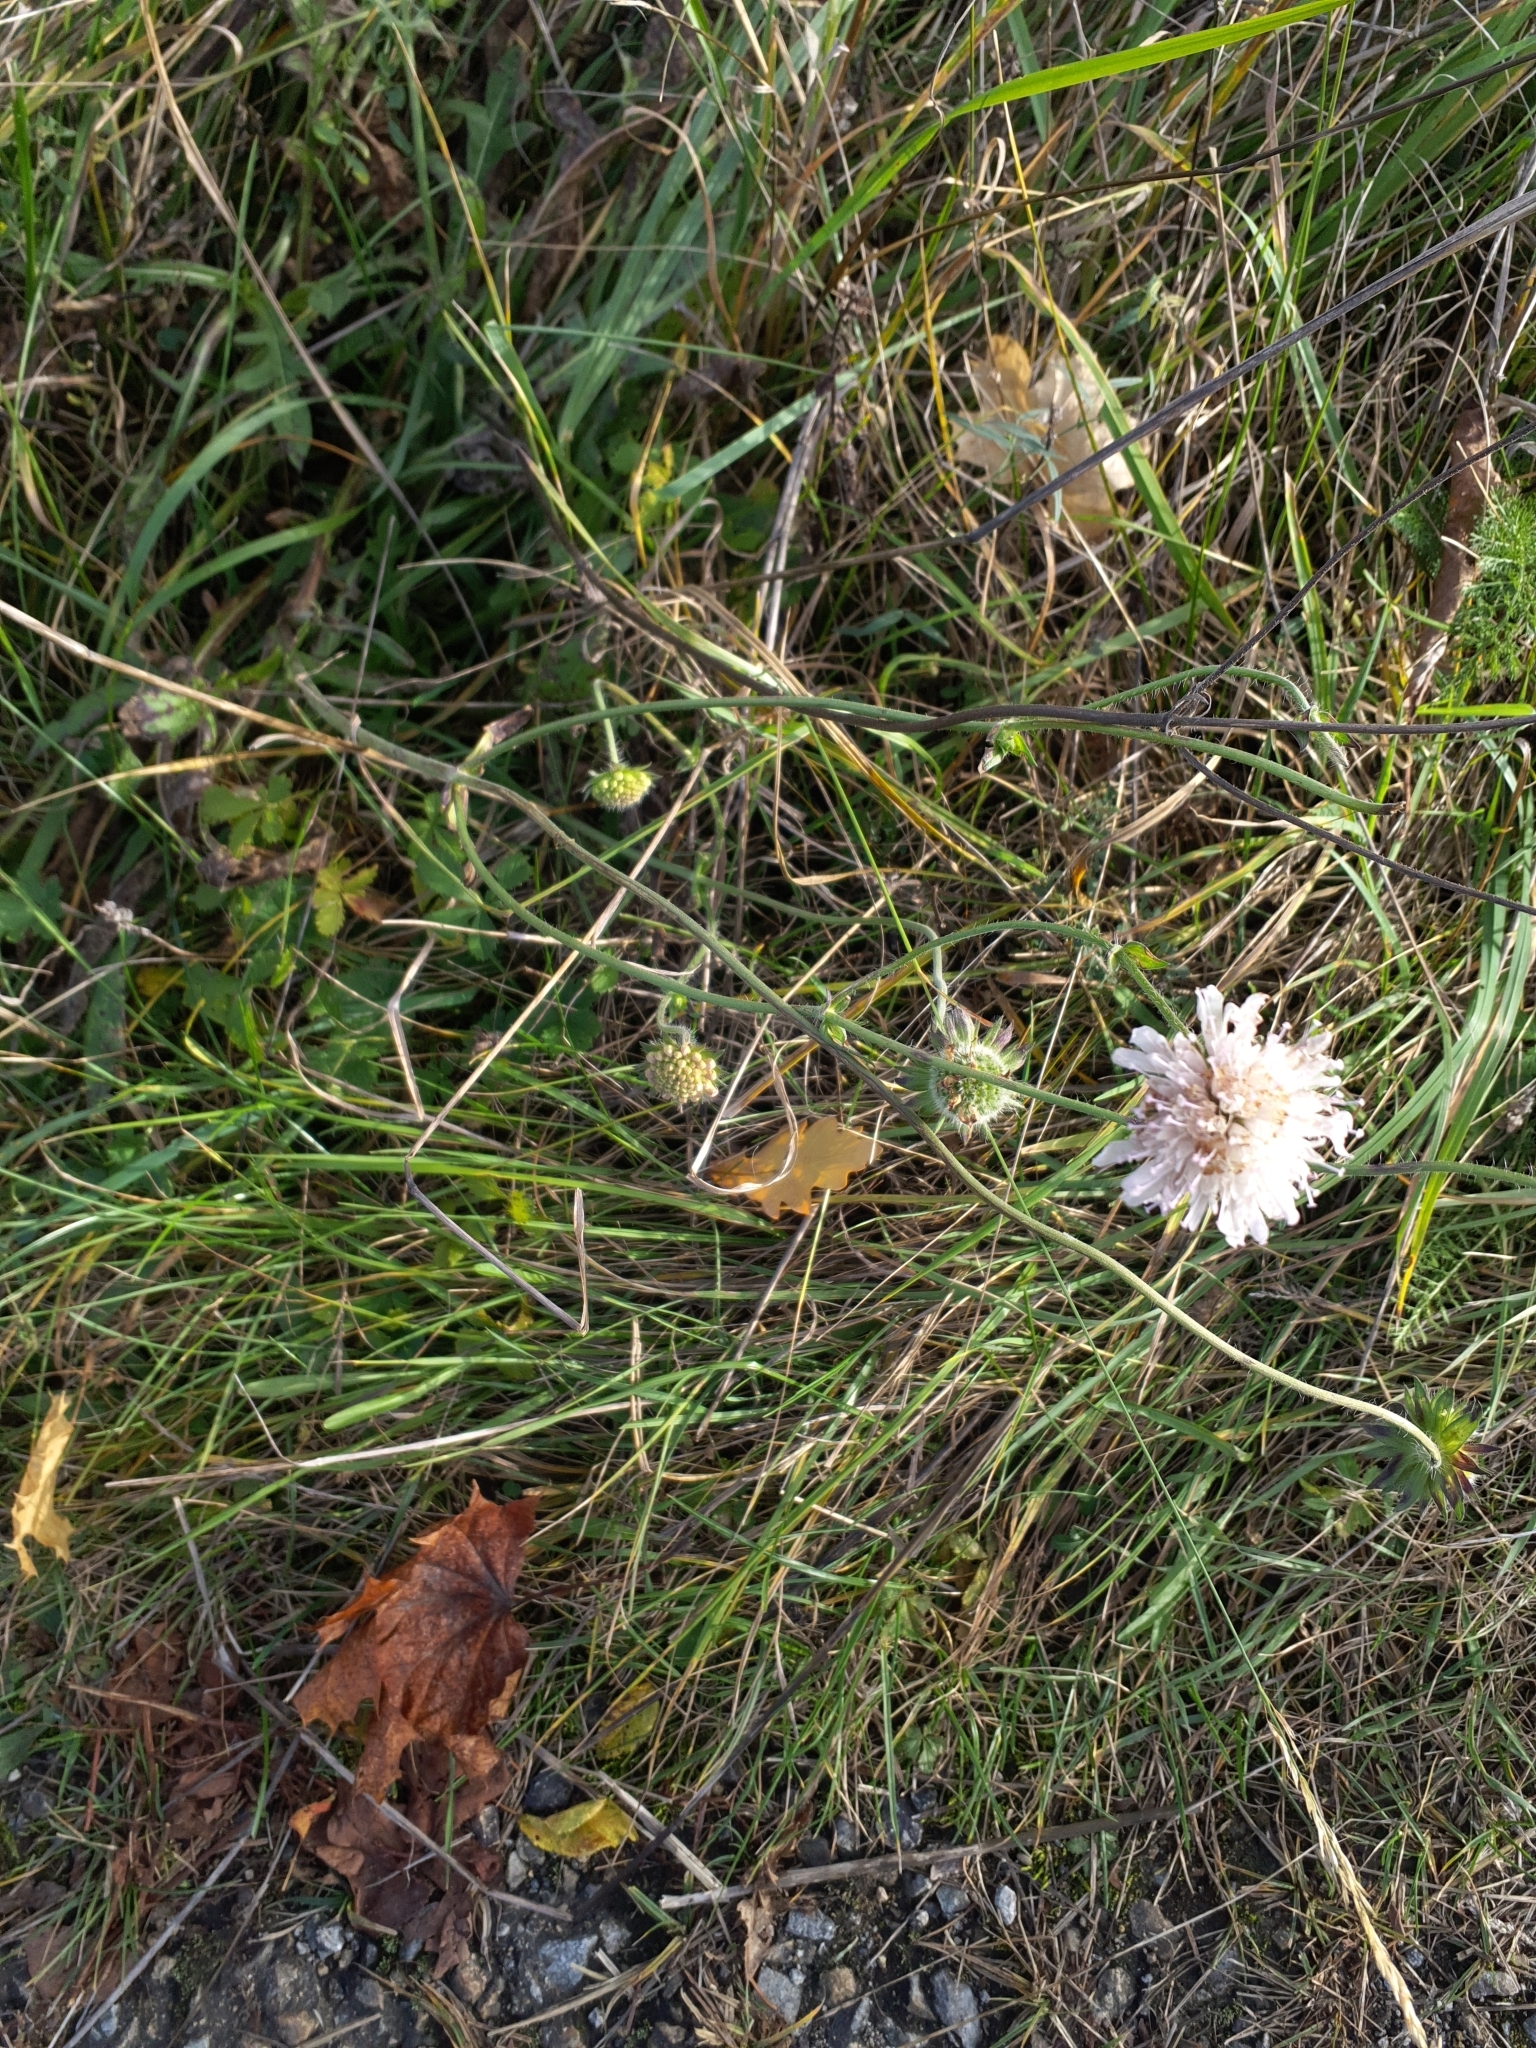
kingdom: Plantae
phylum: Tracheophyta
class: Magnoliopsida
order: Dipsacales
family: Caprifoliaceae
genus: Knautia
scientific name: Knautia arvensis
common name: Field scabiosa
